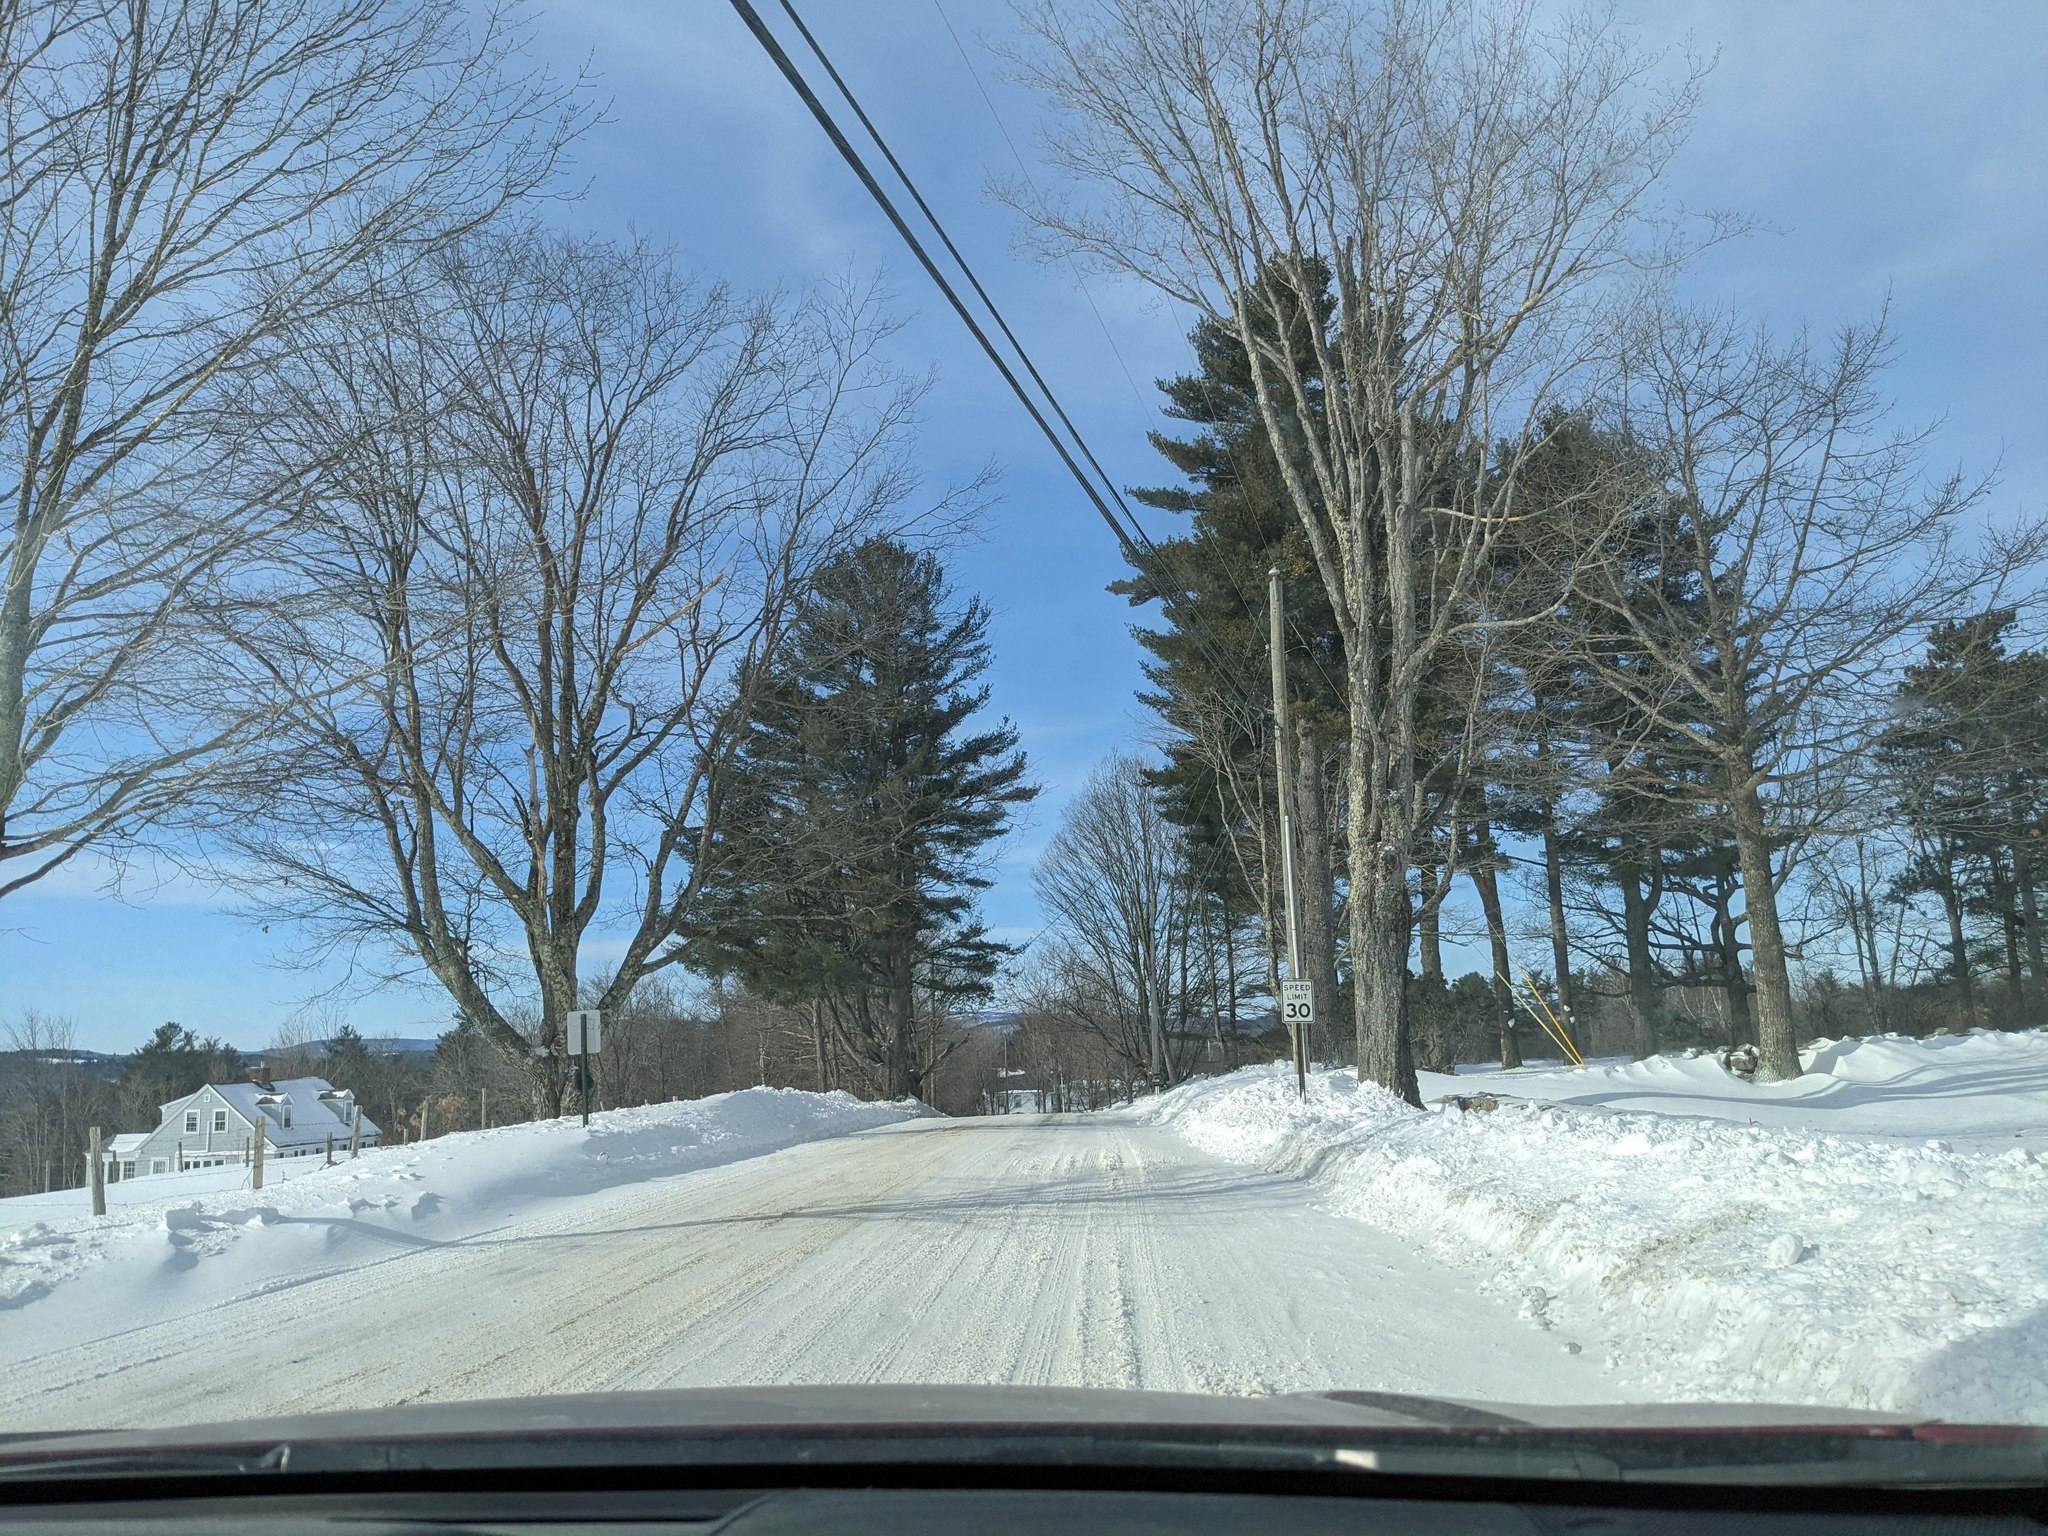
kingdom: Plantae
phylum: Tracheophyta
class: Pinopsida
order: Pinales
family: Pinaceae
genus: Pinus
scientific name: Pinus strobus
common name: Weymouth pine
